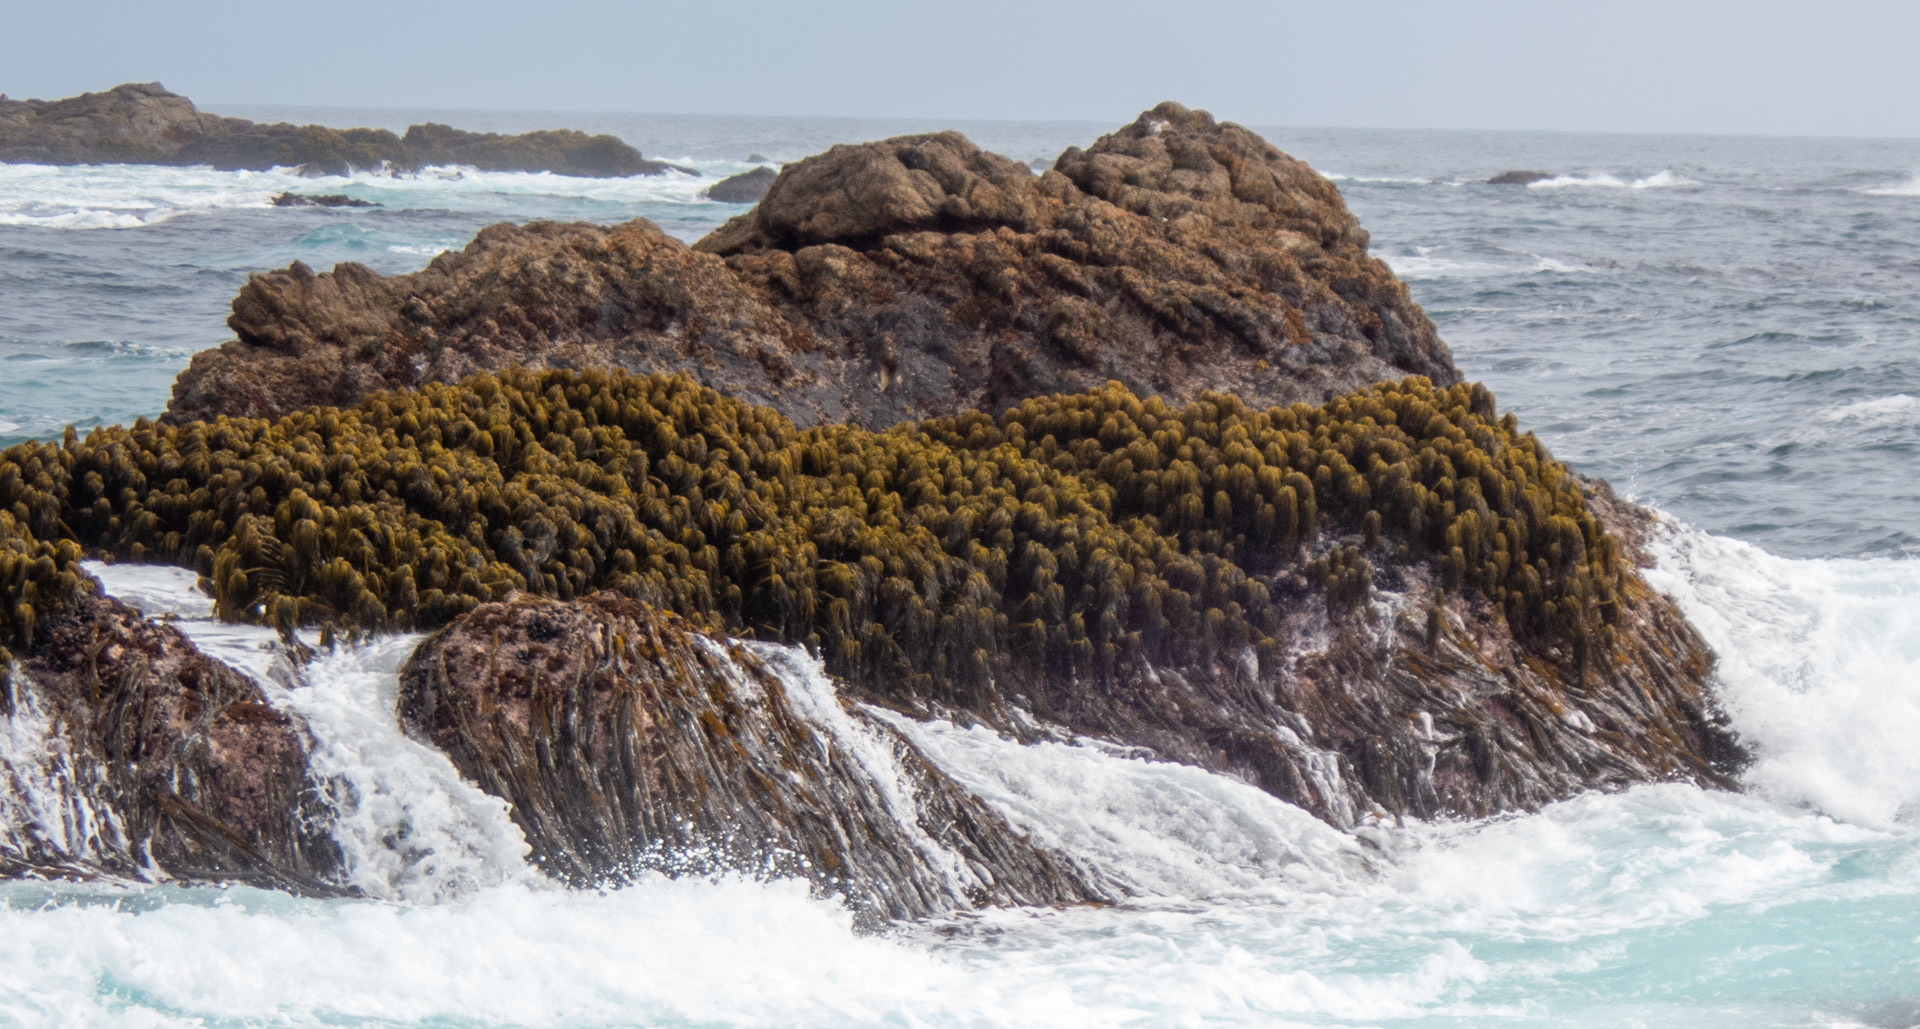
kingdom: Chromista
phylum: Ochrophyta
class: Phaeophyceae
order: Laminariales
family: Laminariaceae
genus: Postelsia
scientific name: Postelsia palmiformis
